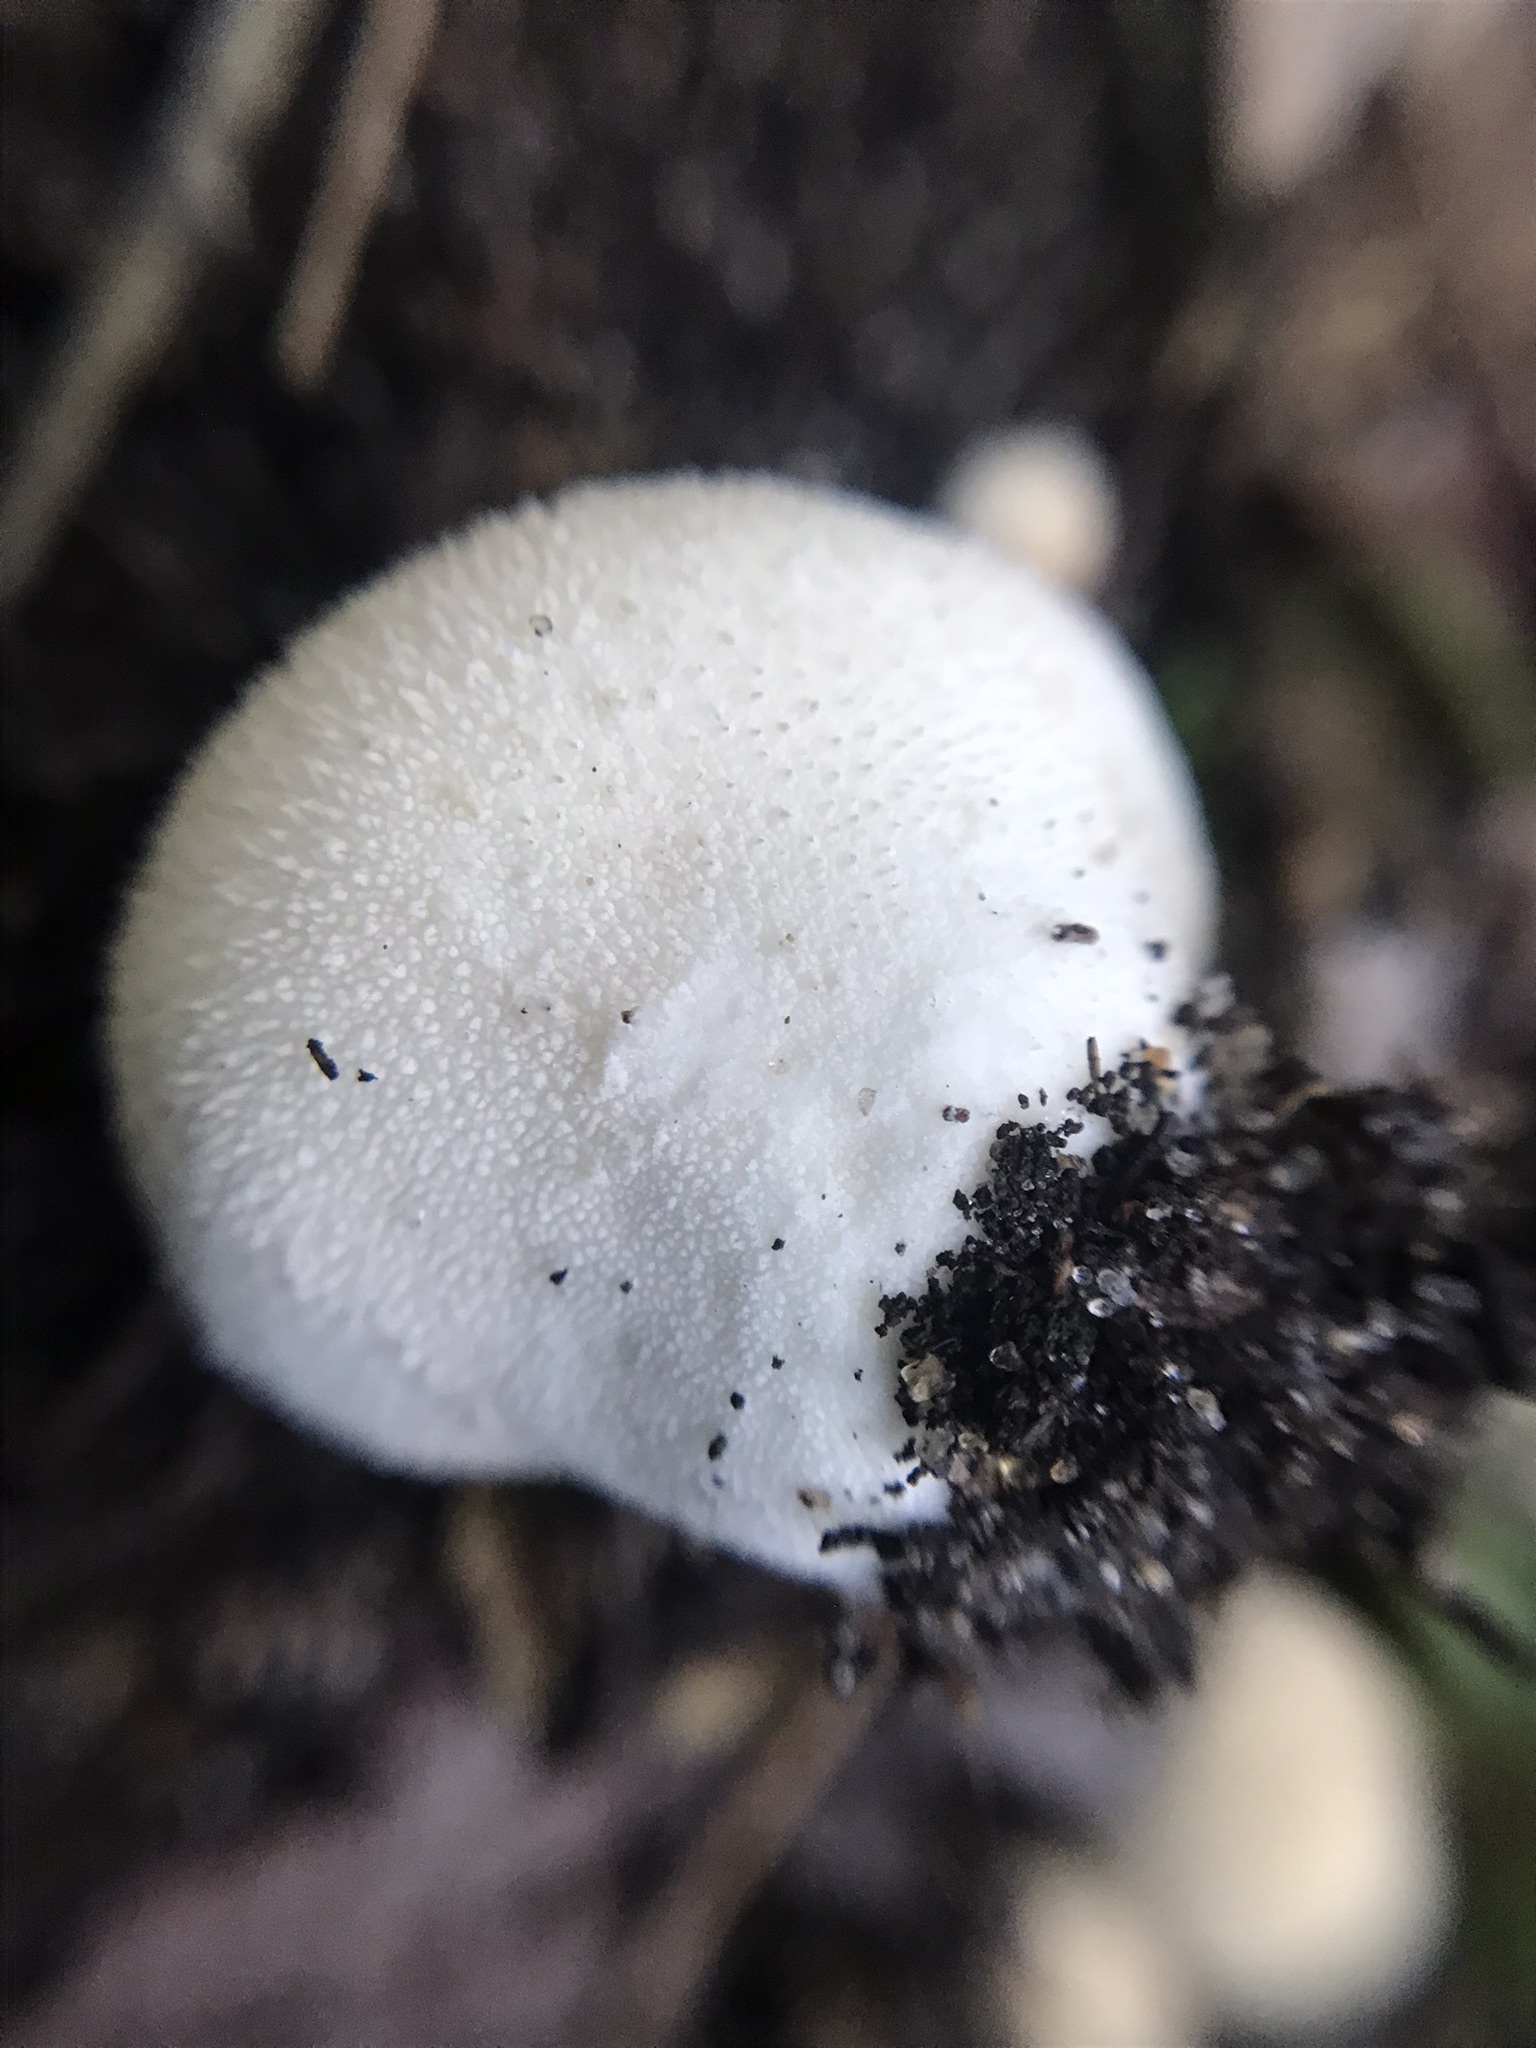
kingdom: Fungi
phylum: Basidiomycota
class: Agaricomycetes
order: Agaricales
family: Lycoperdaceae
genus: Lycoperdon
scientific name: Lycoperdon perlatum
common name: Common puffball
